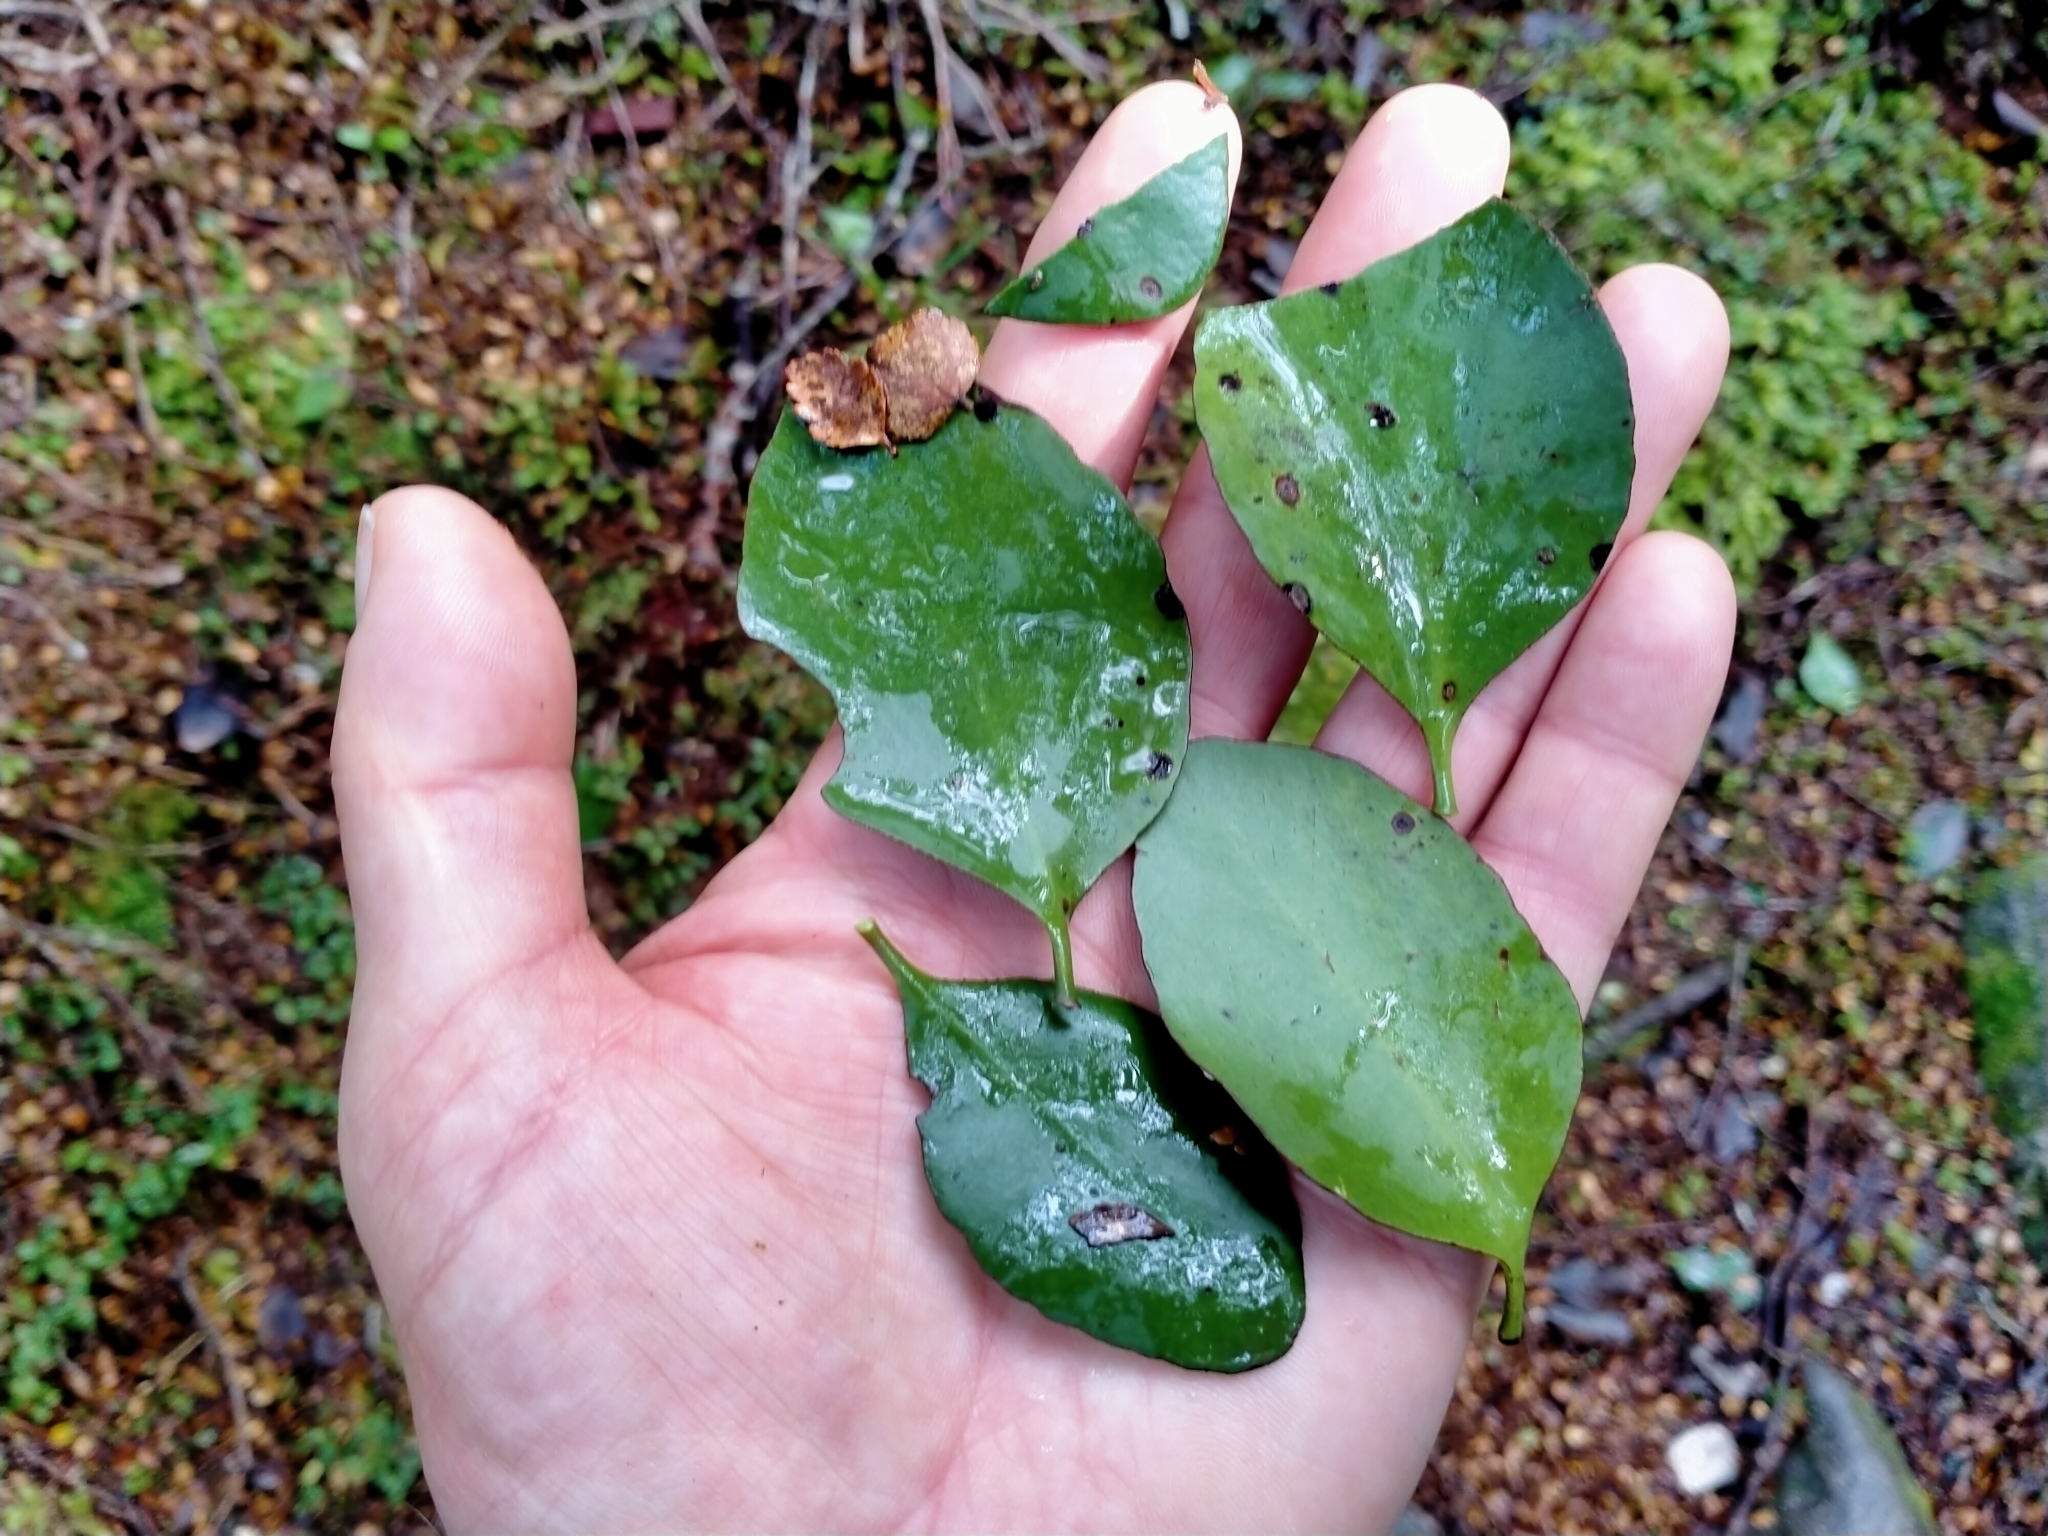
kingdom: Plantae
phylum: Tracheophyta
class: Magnoliopsida
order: Santalales
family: Loranthaceae
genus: Peraxilla
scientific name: Peraxilla colensoi
